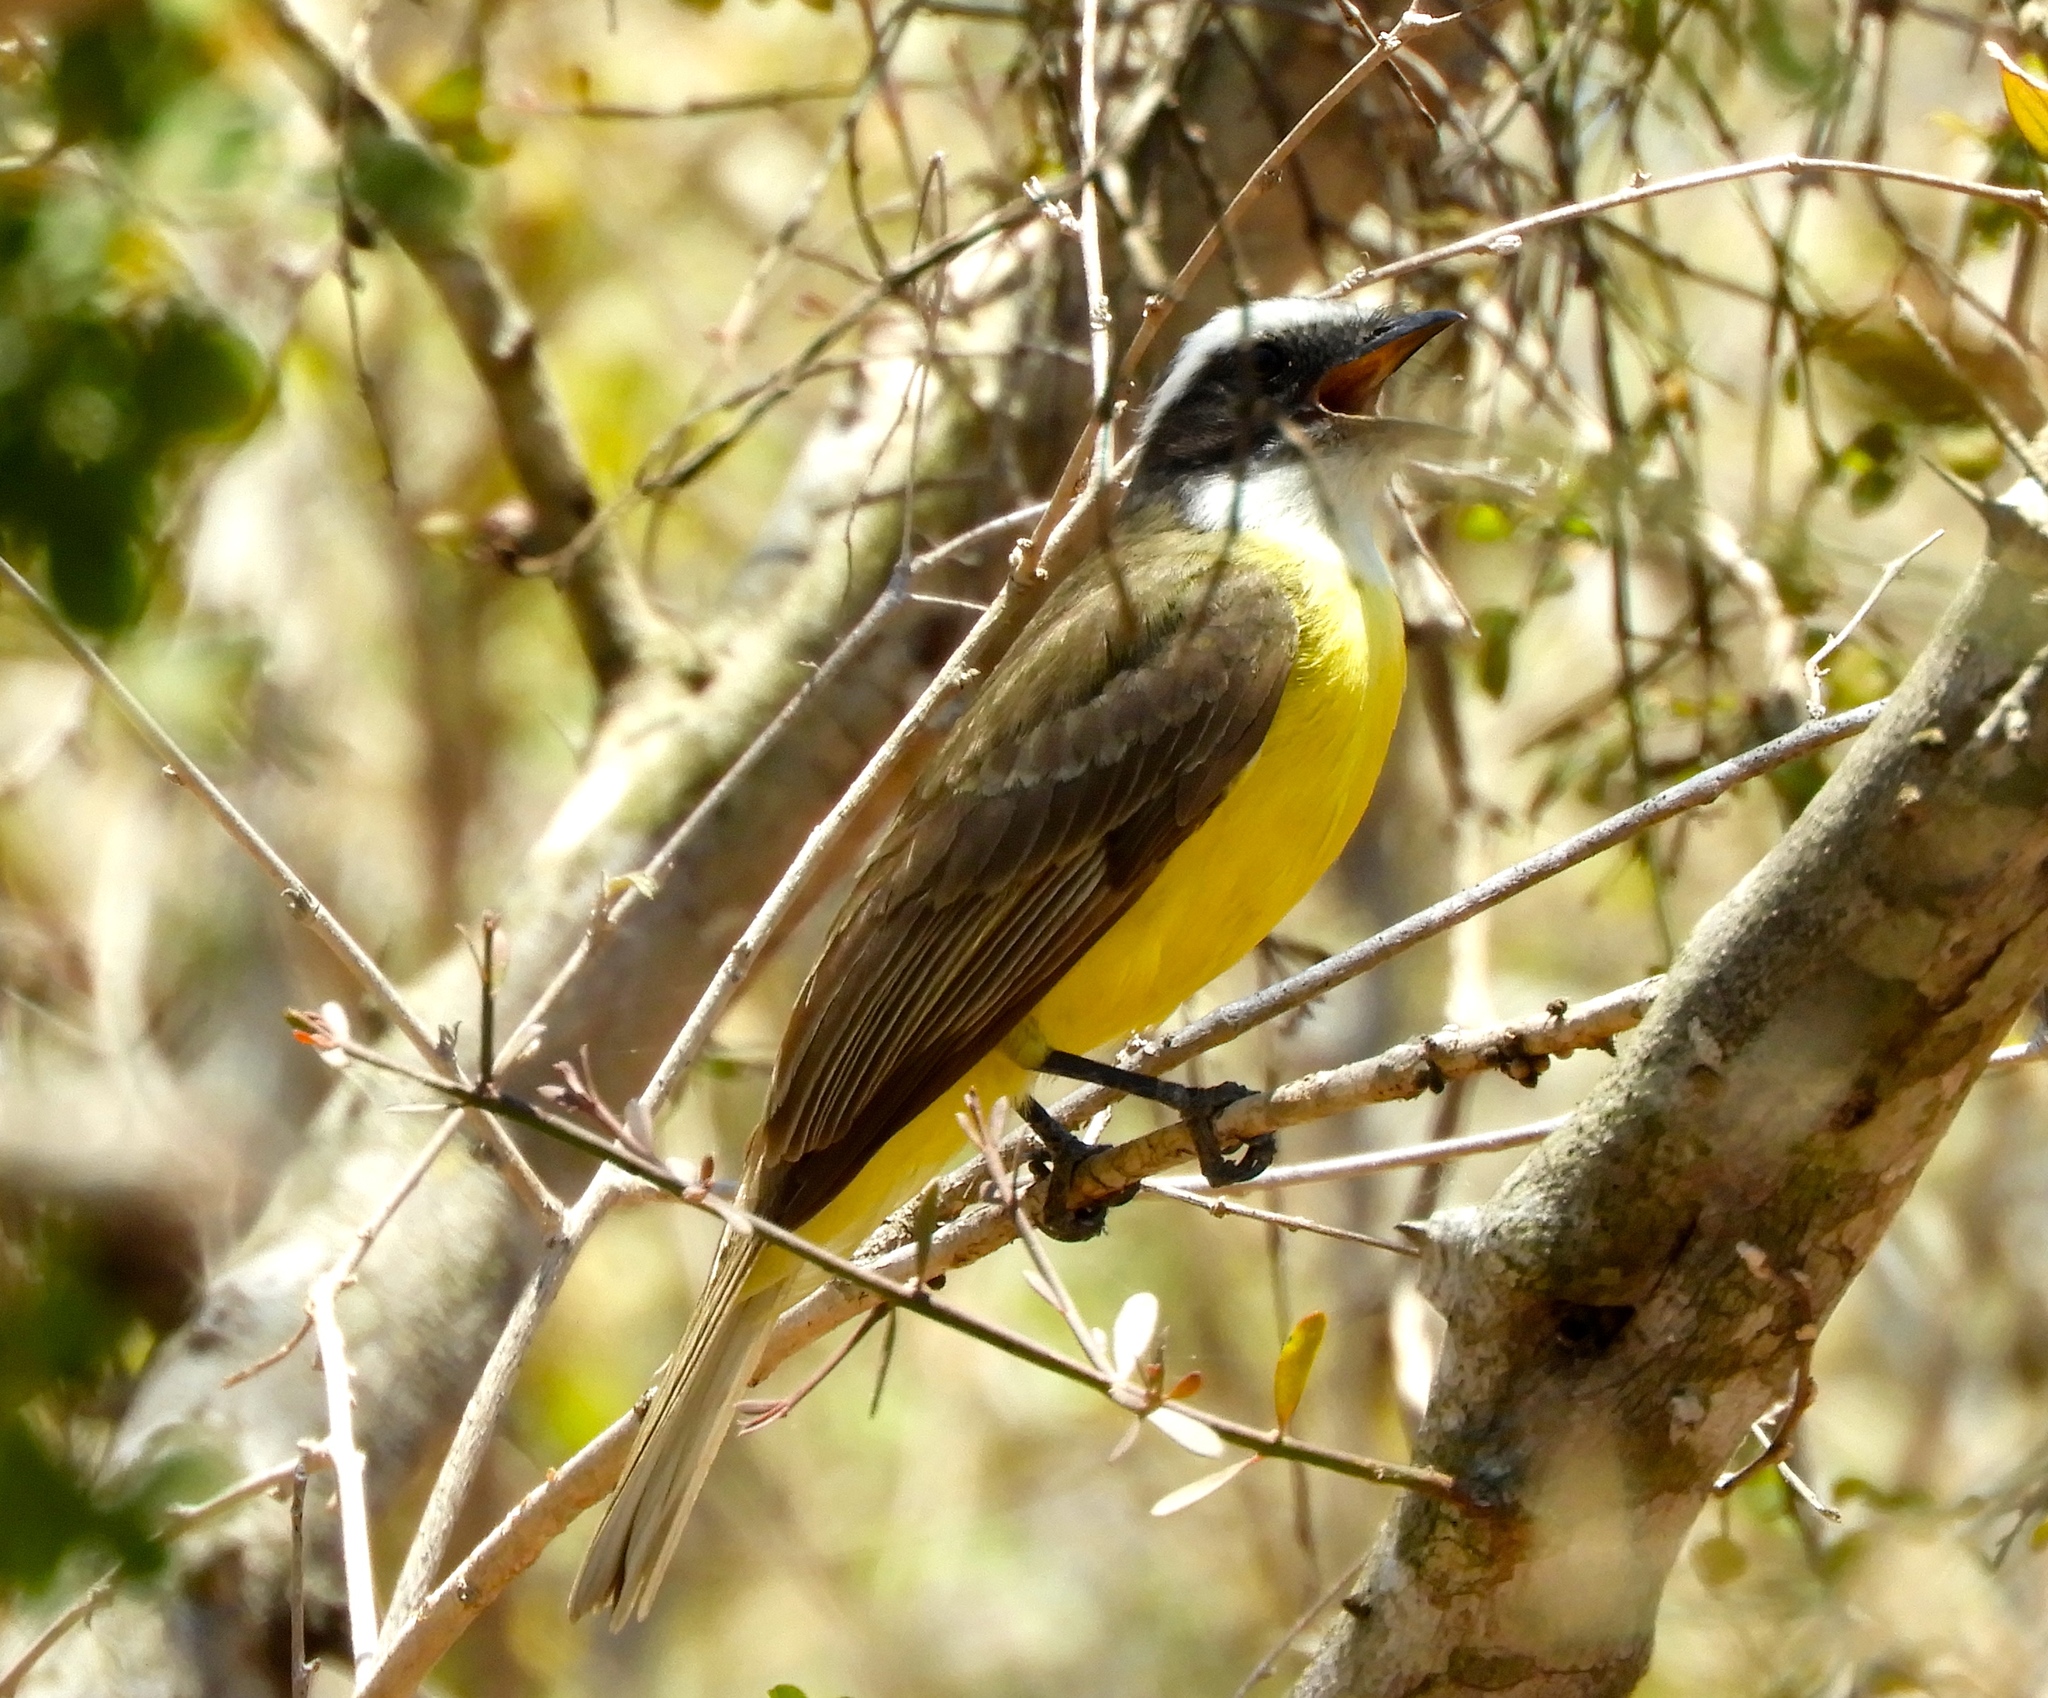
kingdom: Animalia
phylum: Chordata
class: Aves
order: Passeriformes
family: Tyrannidae
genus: Myiozetetes
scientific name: Myiozetetes similis
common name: Social flycatcher
